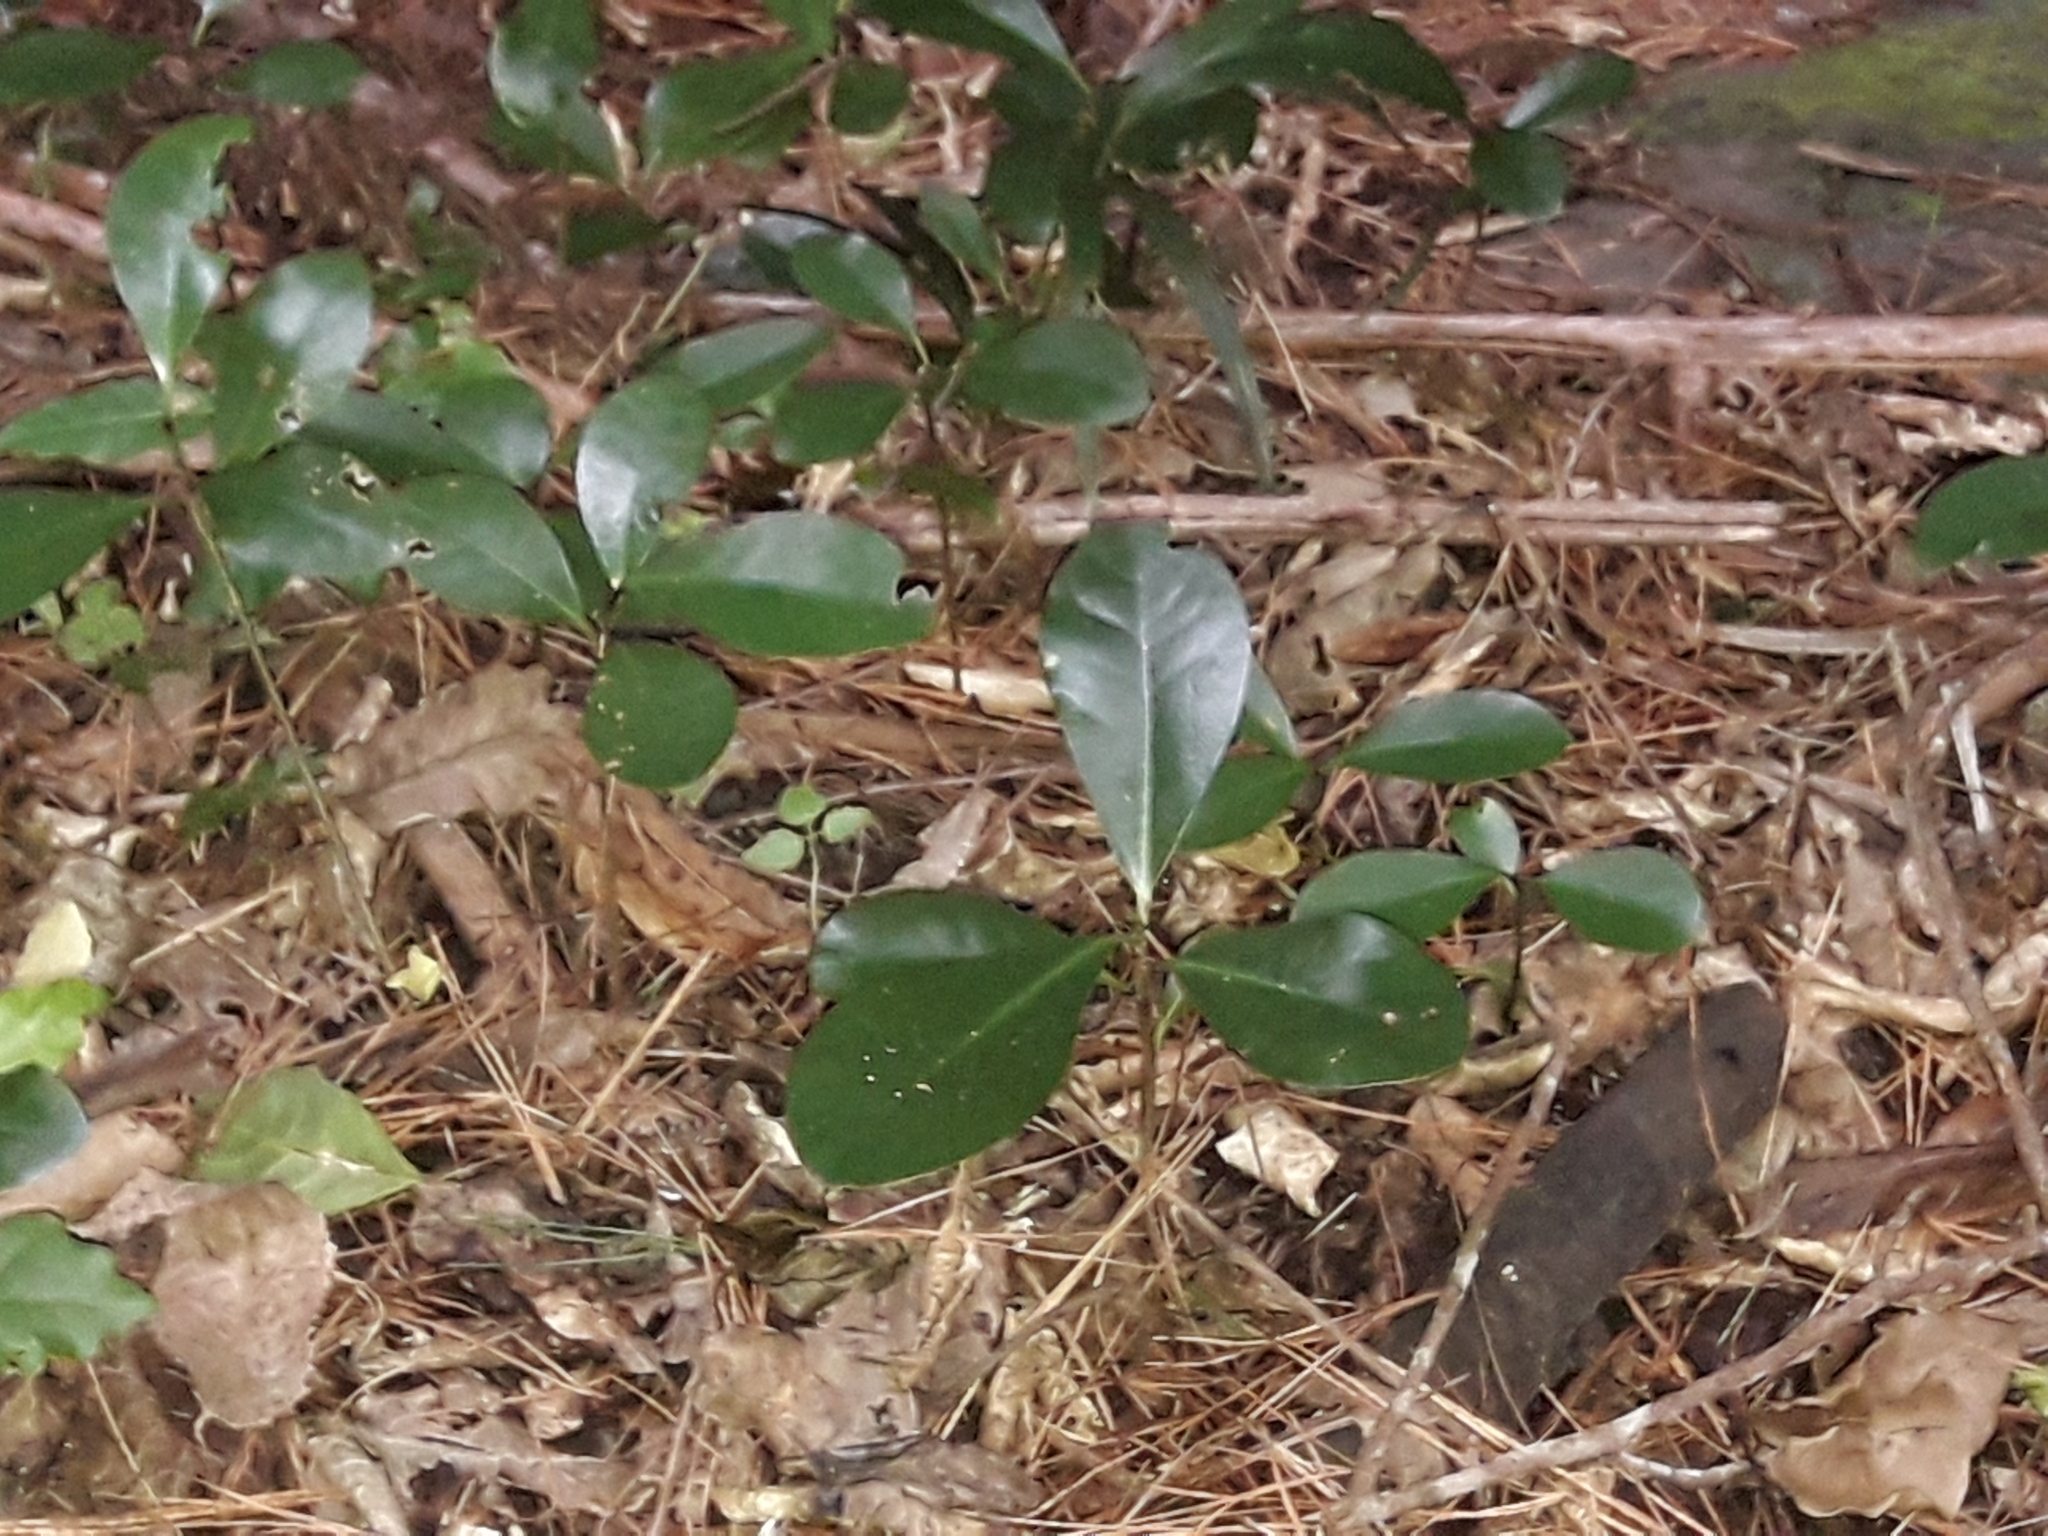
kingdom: Plantae
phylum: Tracheophyta
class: Magnoliopsida
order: Cucurbitales
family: Corynocarpaceae
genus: Corynocarpus
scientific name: Corynocarpus laevigatus
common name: New zealand laurel
